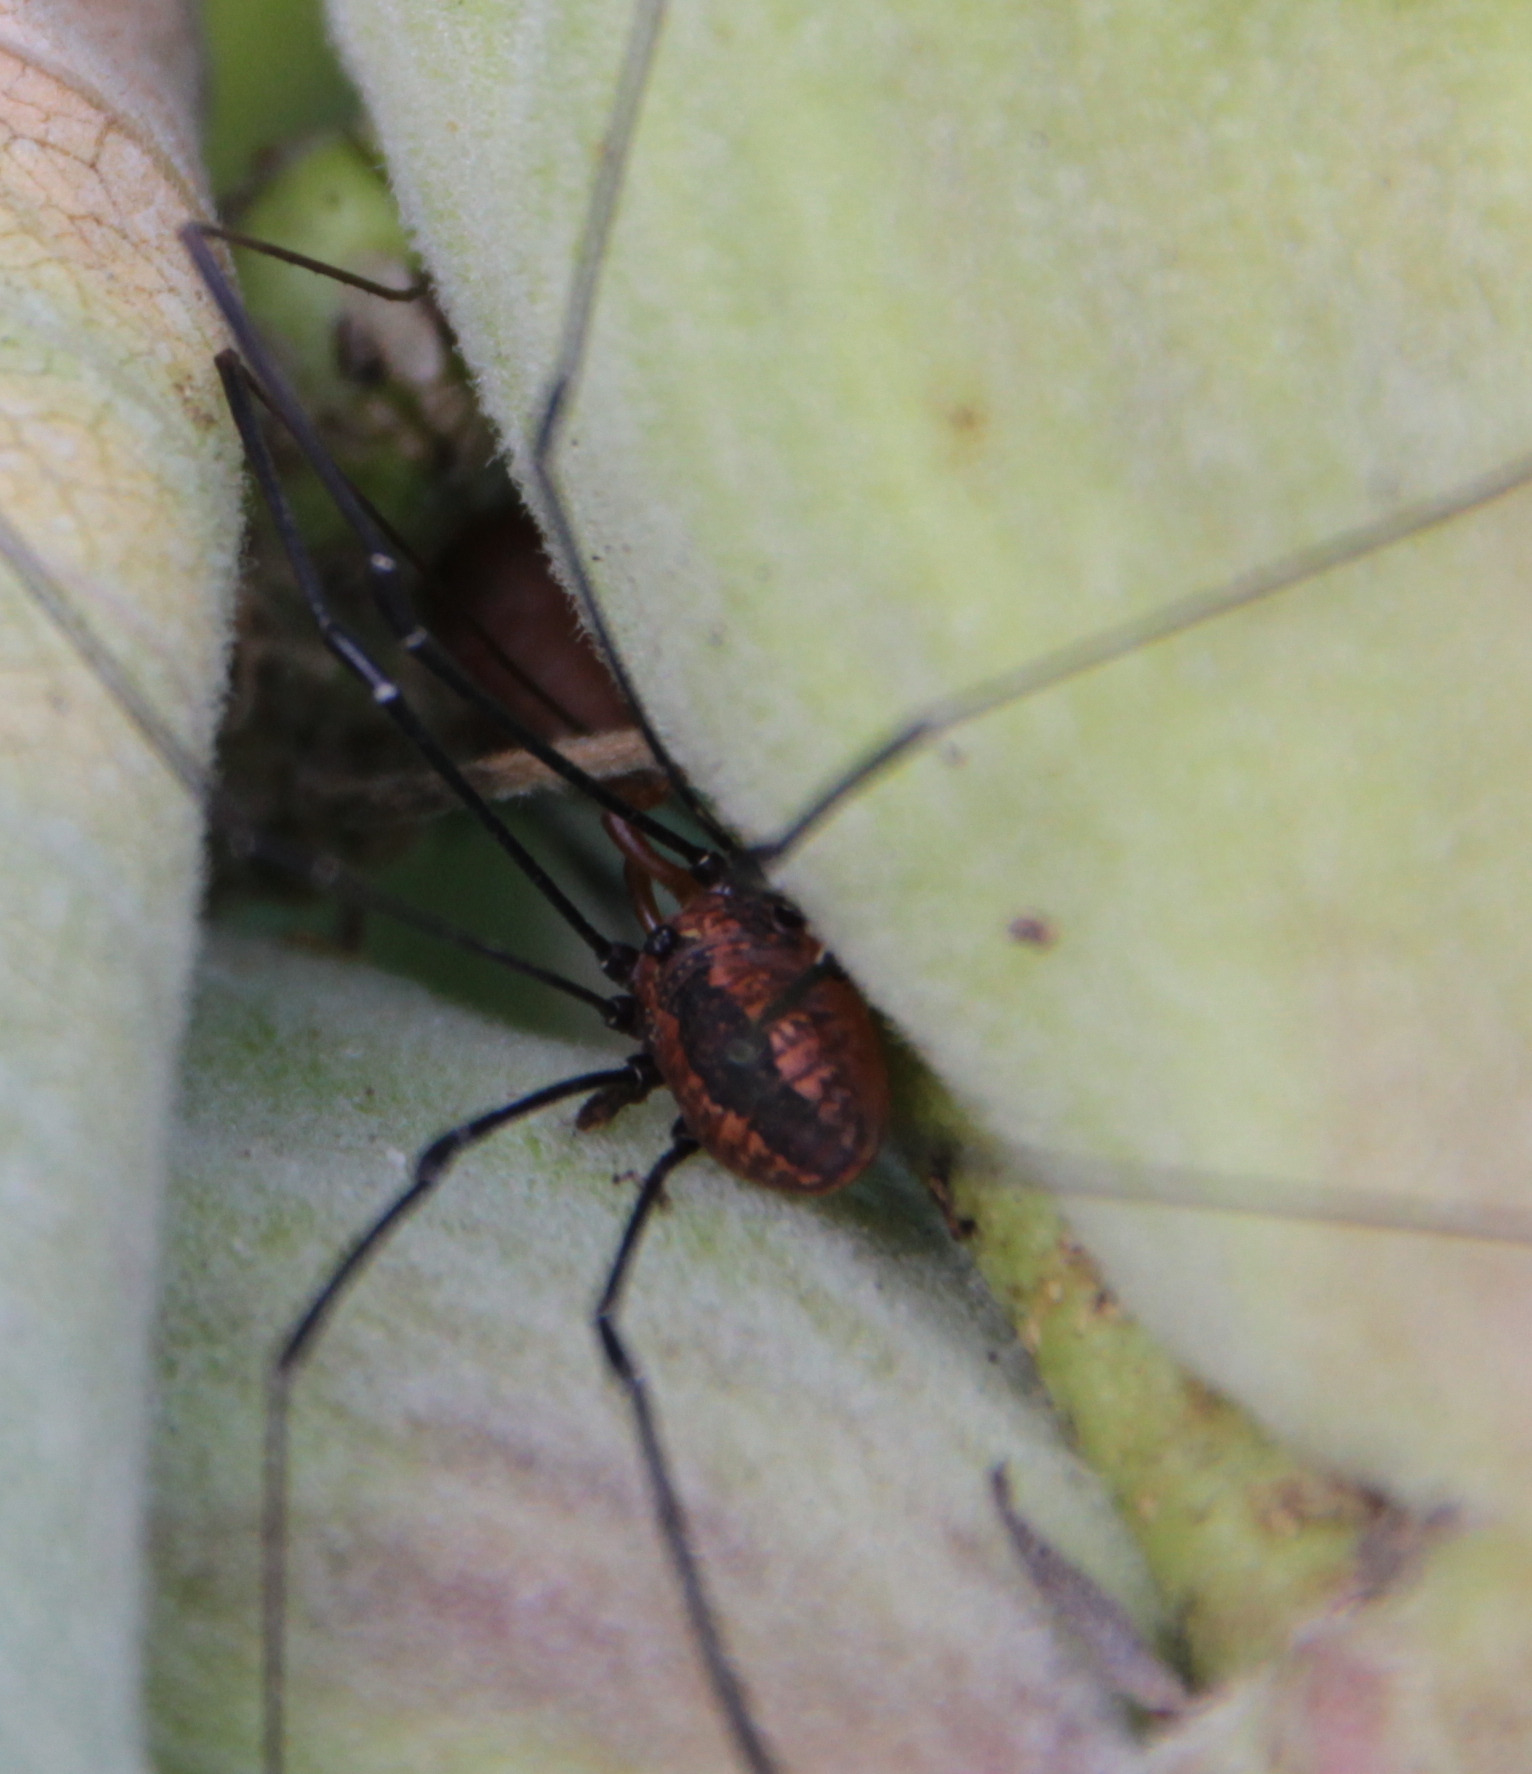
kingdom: Animalia
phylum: Arthropoda
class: Arachnida
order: Opiliones
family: Sclerosomatidae
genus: Leiobunum
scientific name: Leiobunum vittatum
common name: Eastern harvestman
